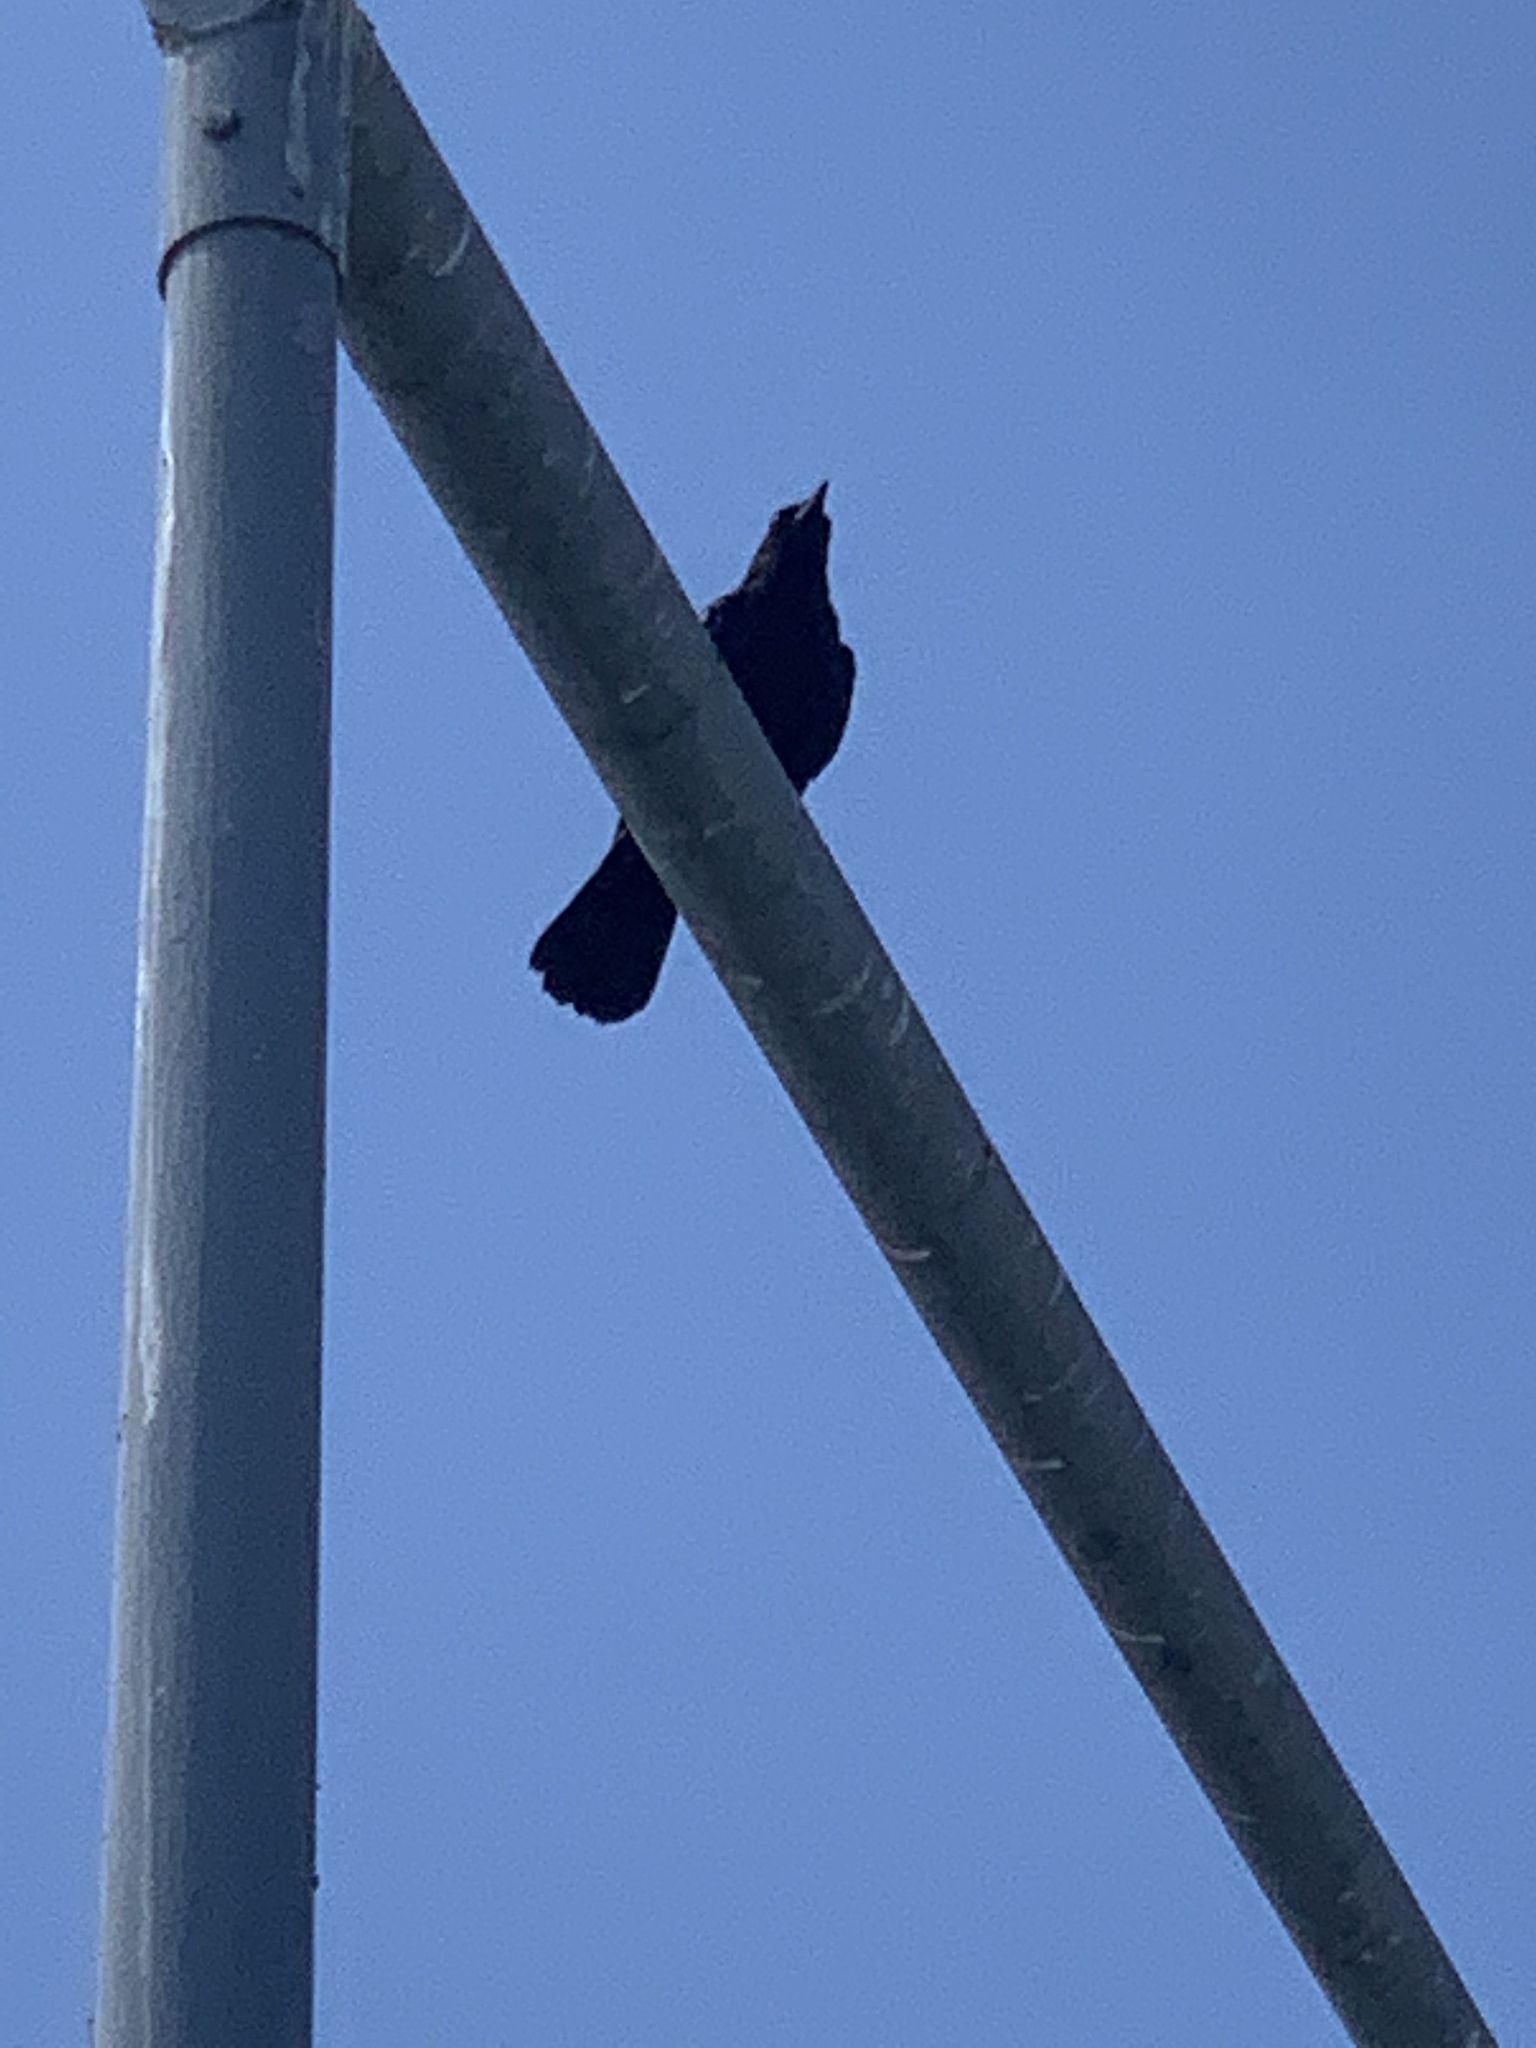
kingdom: Animalia
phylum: Chordata
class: Aves
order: Passeriformes
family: Corvidae
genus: Corvus
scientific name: Corvus brachyrhynchos
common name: American crow
